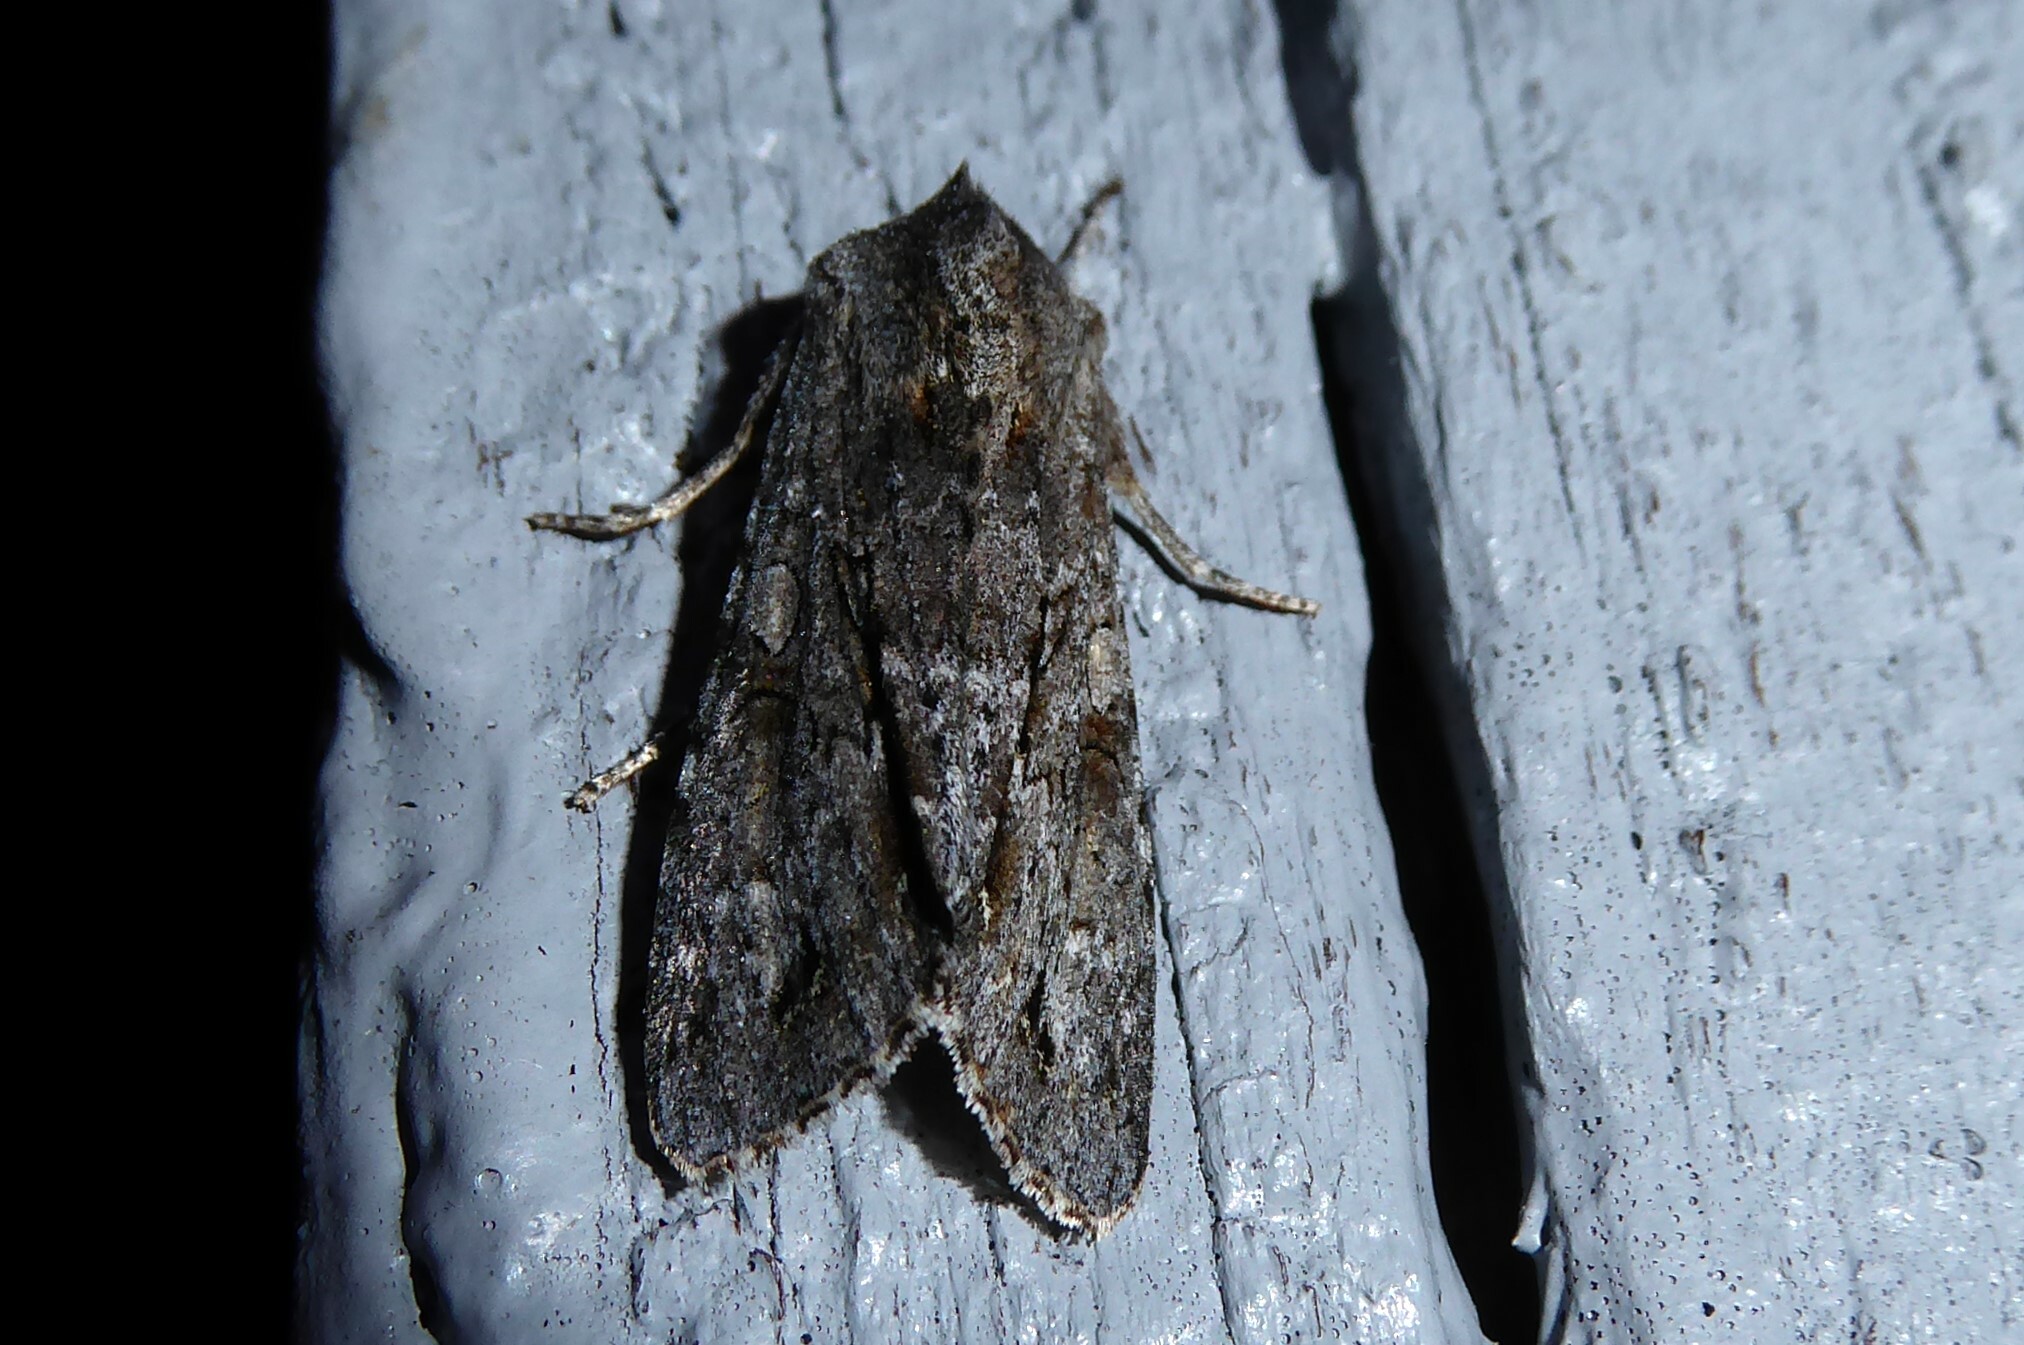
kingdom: Animalia
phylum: Arthropoda
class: Insecta
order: Lepidoptera
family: Noctuidae
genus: Ichneutica
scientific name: Ichneutica
